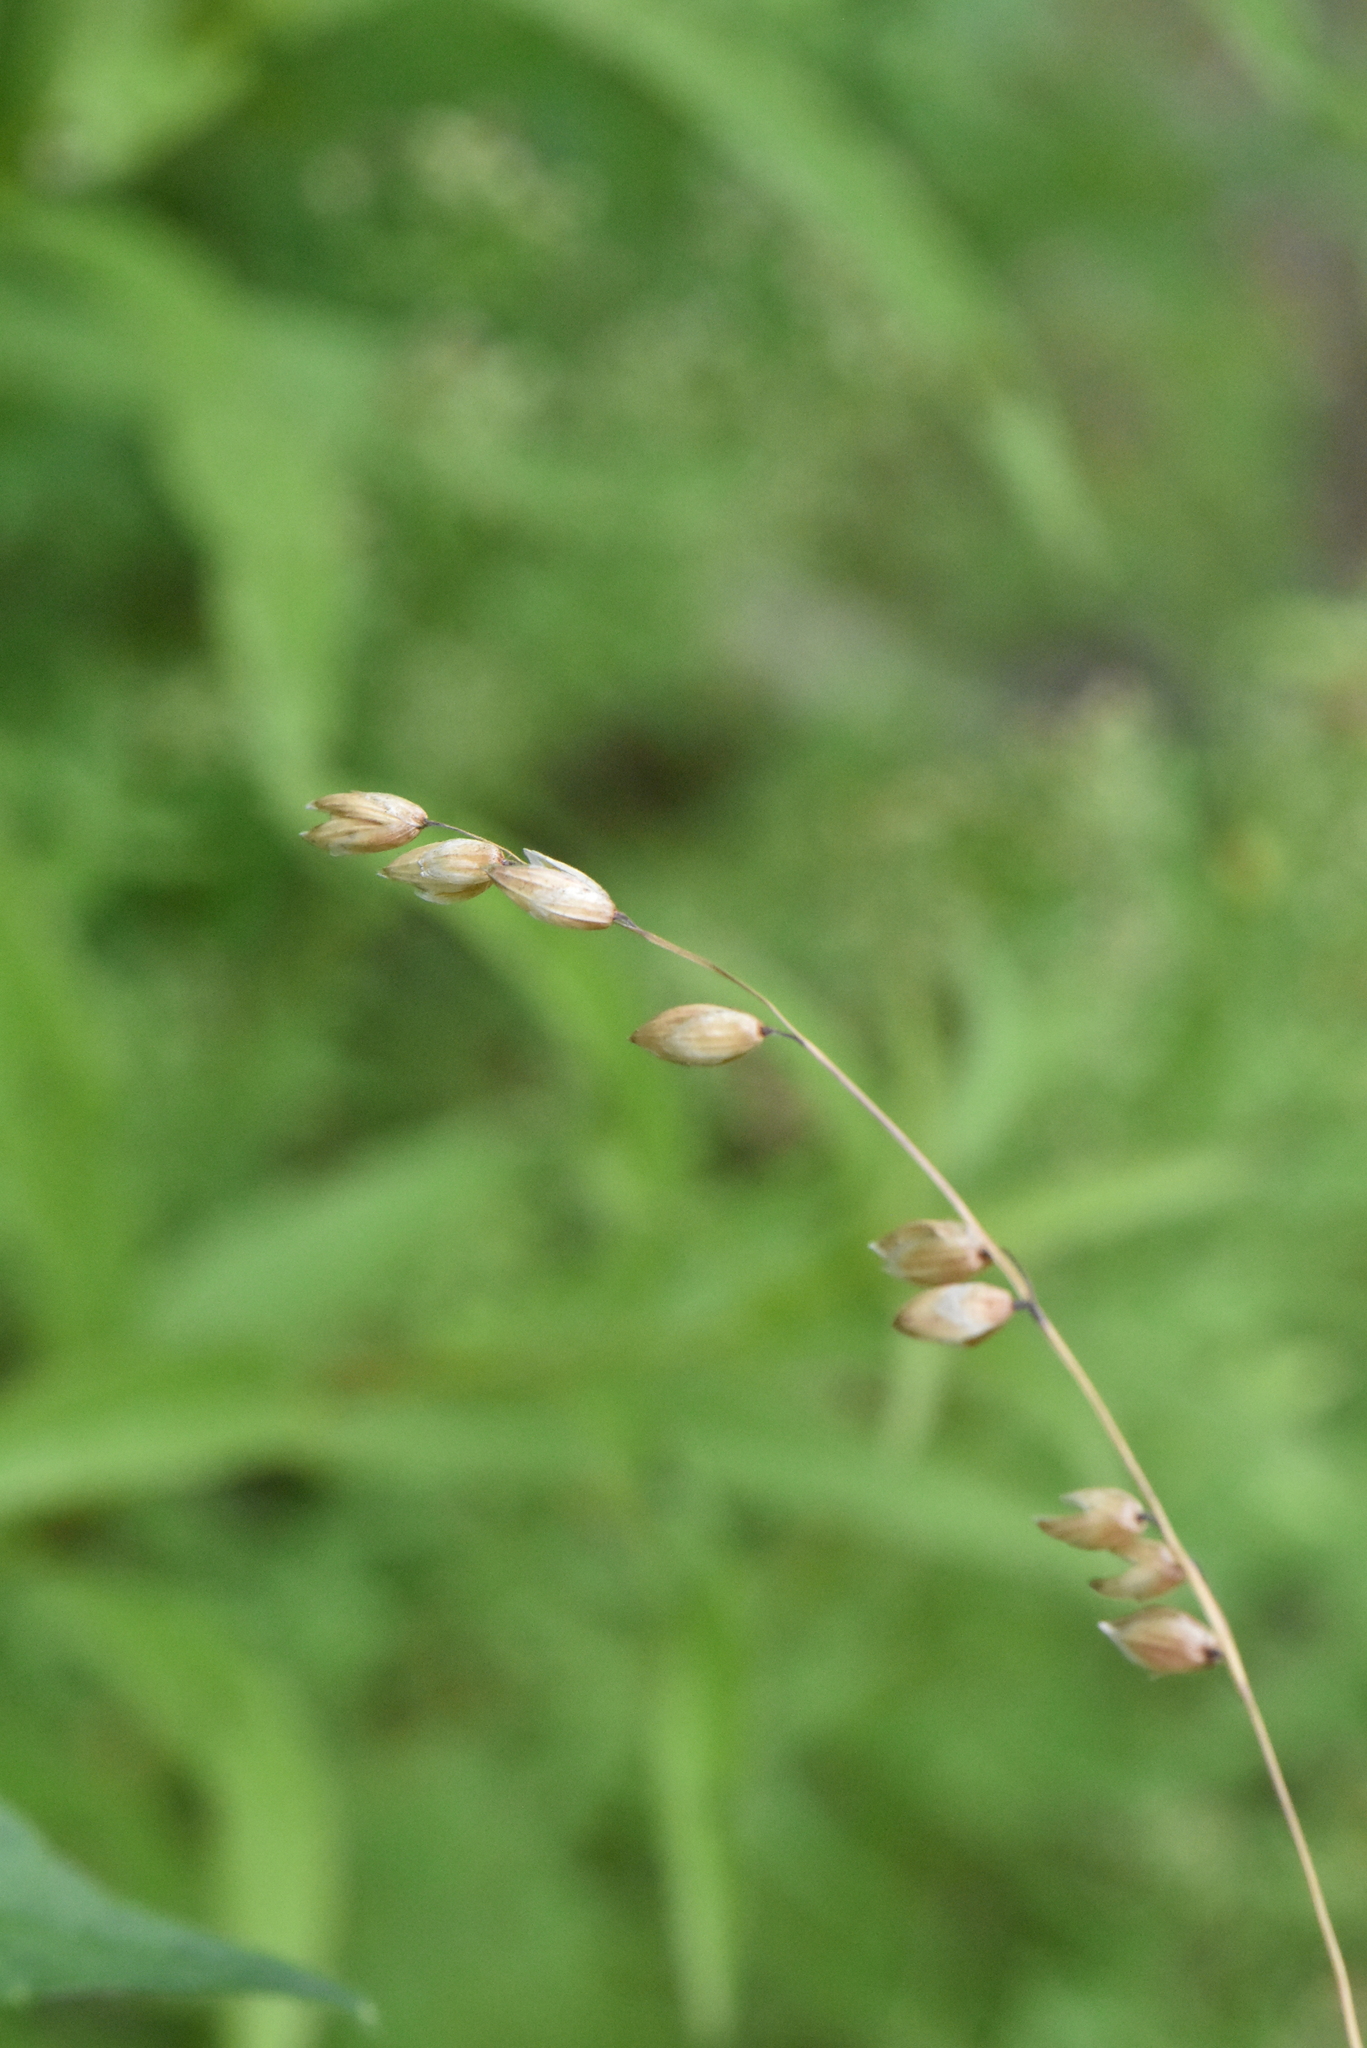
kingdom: Plantae
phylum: Tracheophyta
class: Liliopsida
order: Poales
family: Poaceae
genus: Melica
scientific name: Melica nutans
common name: Mountain melick
